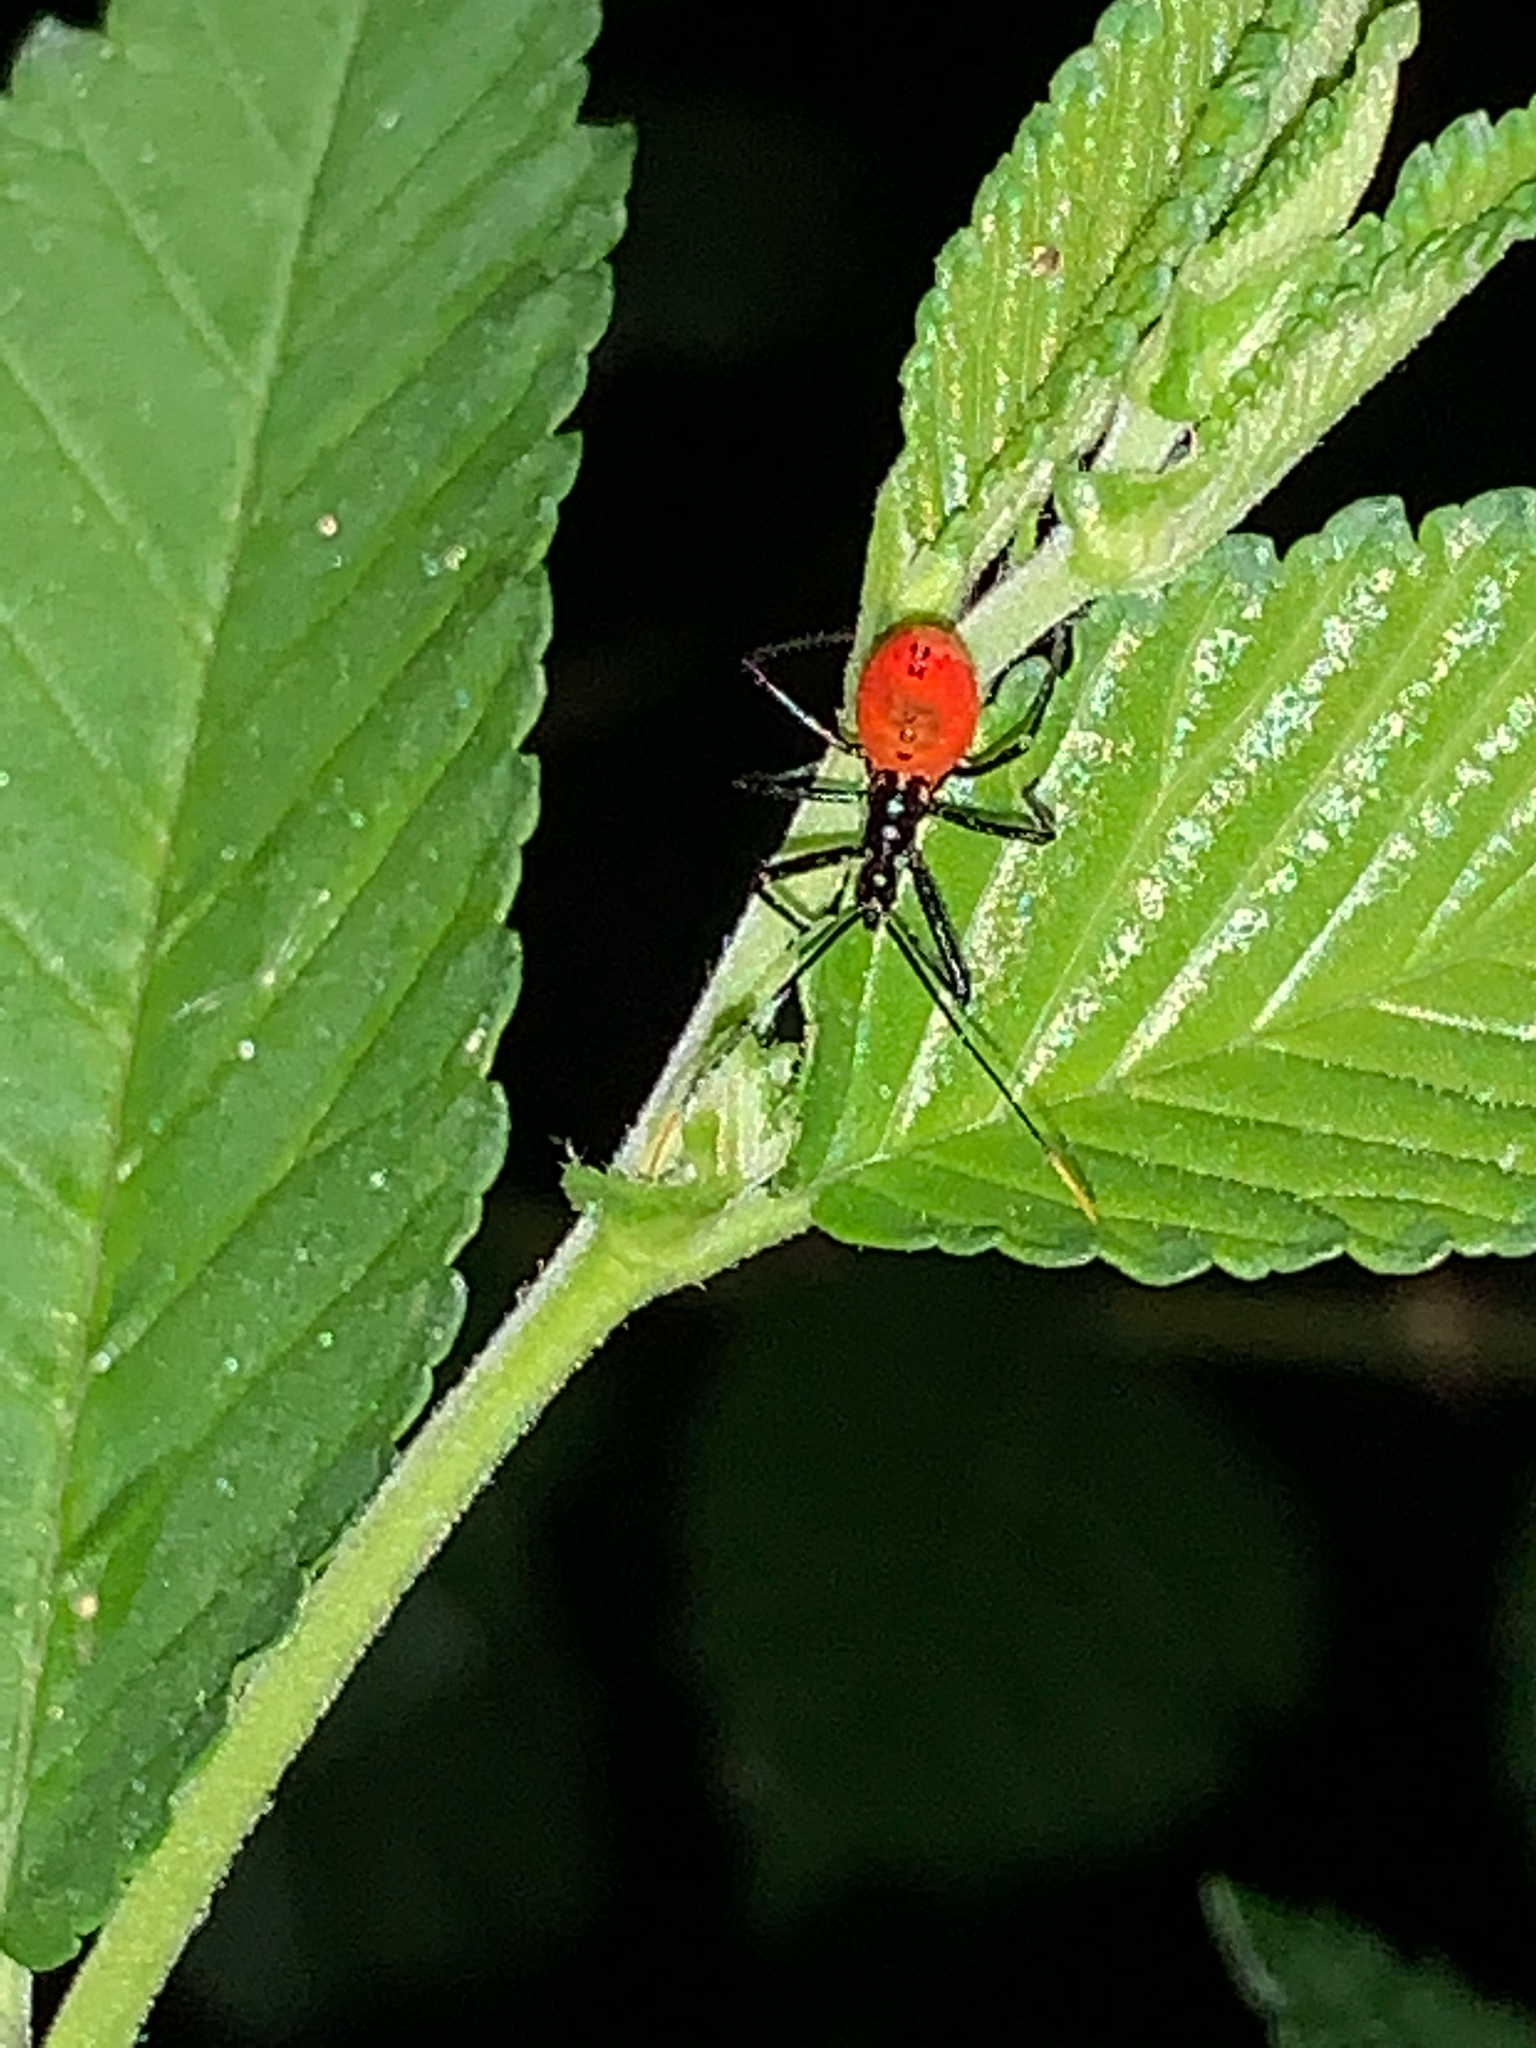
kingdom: Animalia
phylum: Arthropoda
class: Insecta
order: Hemiptera
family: Reduviidae
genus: Arilus
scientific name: Arilus cristatus
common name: North american wheel bug
